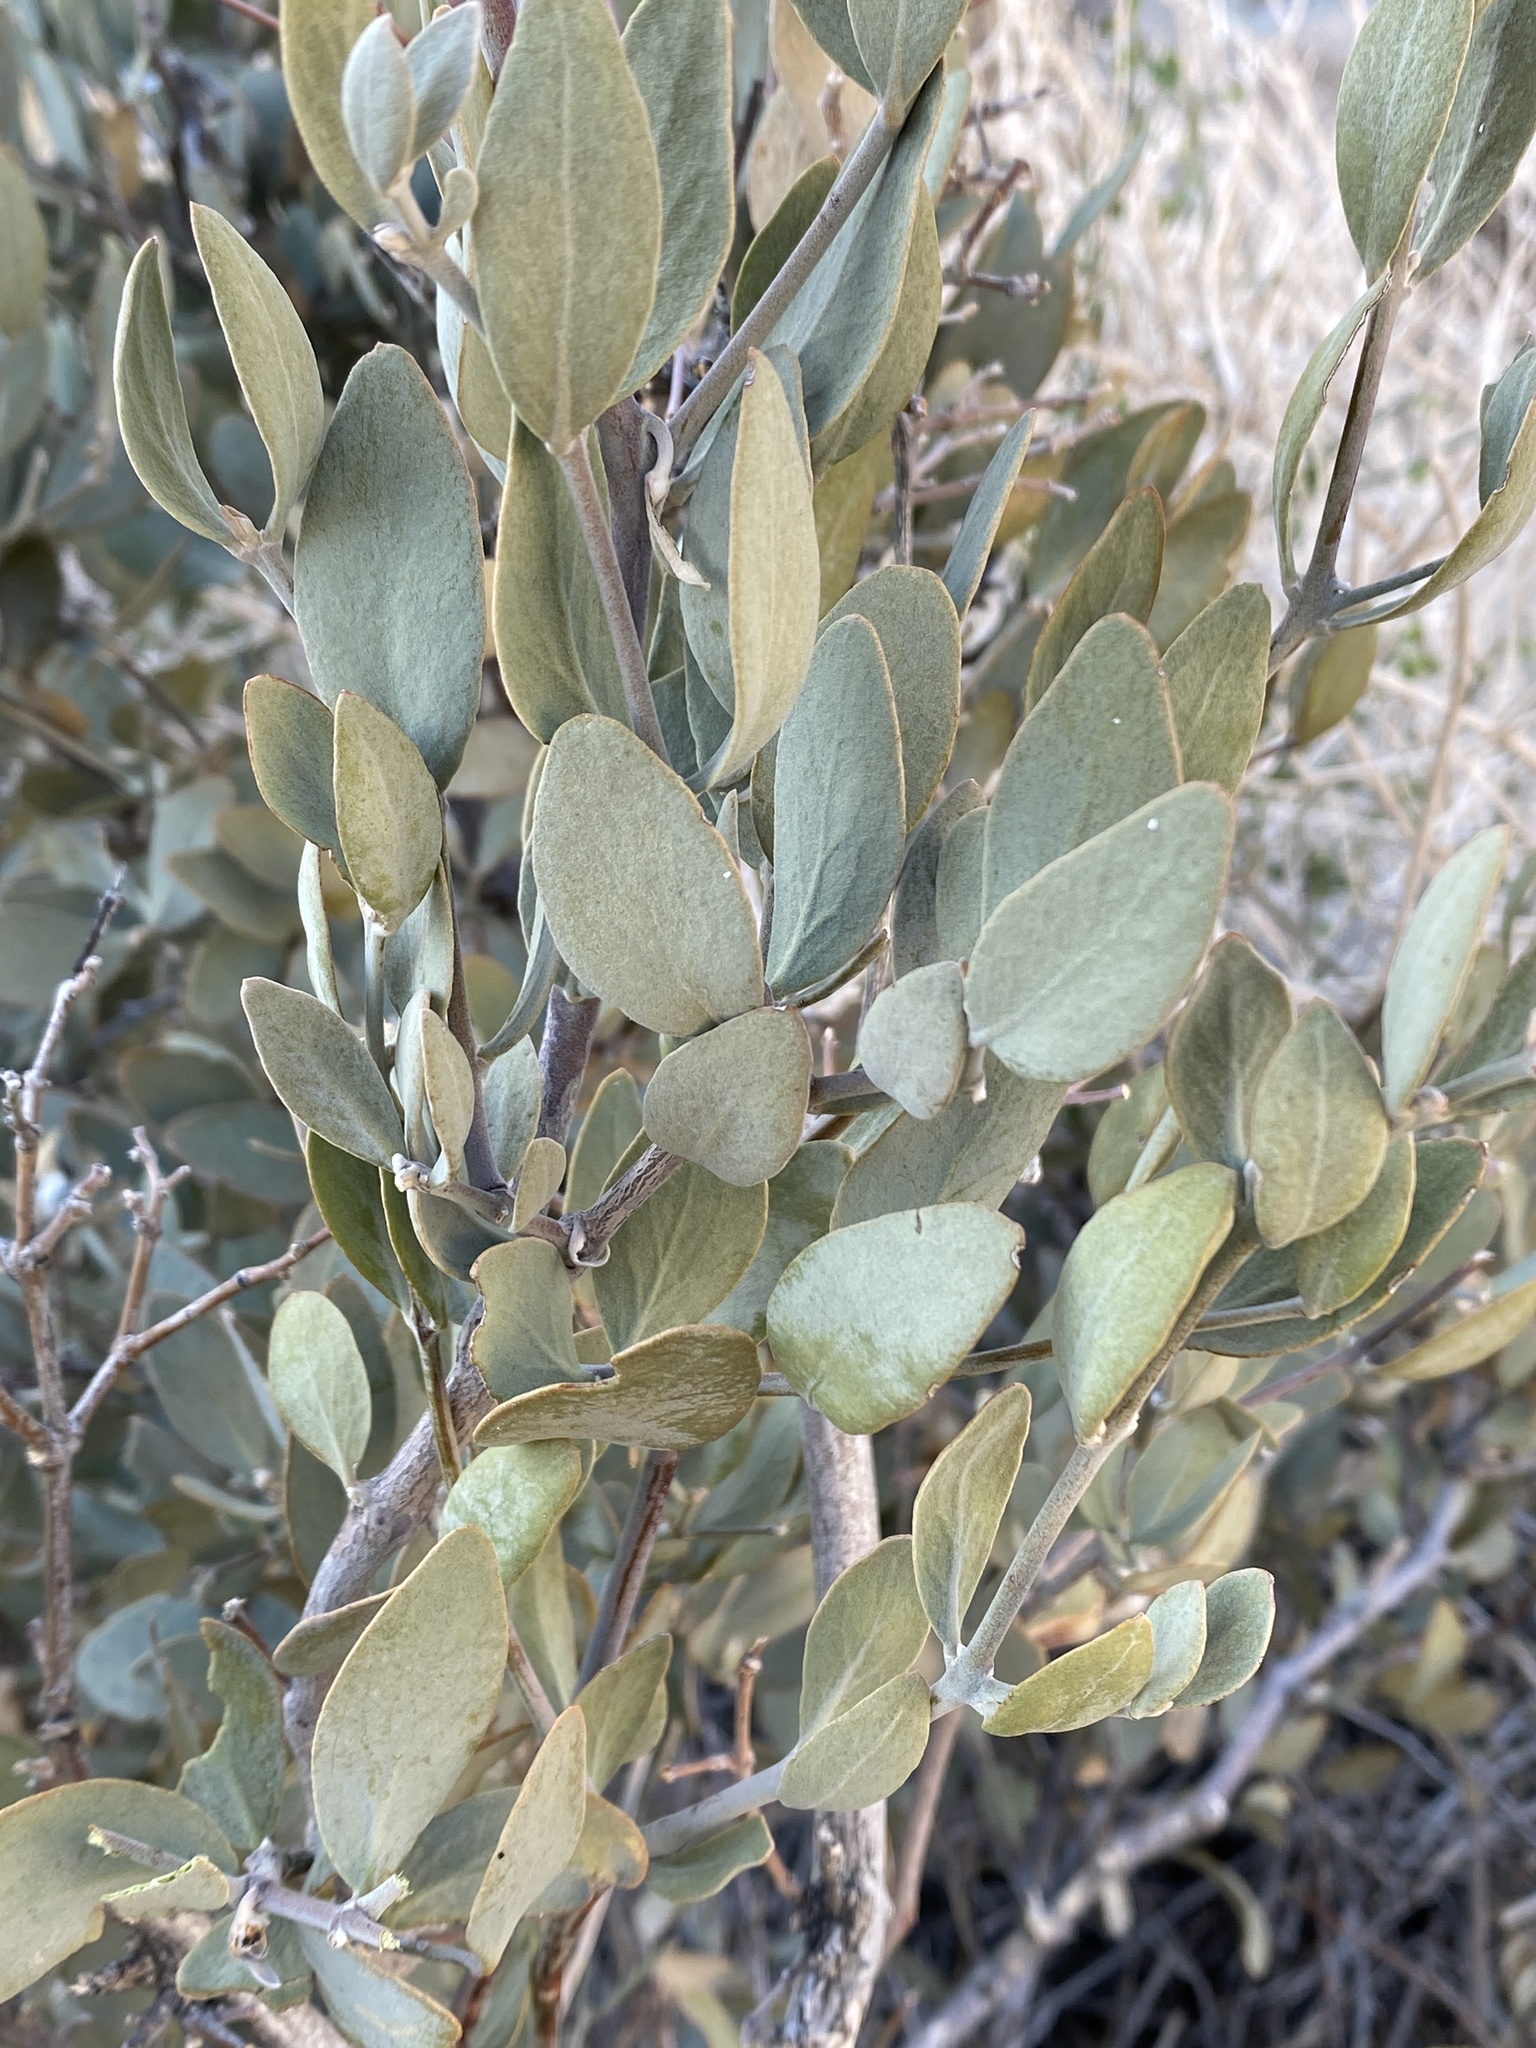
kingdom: Plantae
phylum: Tracheophyta
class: Magnoliopsida
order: Caryophyllales
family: Simmondsiaceae
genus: Simmondsia
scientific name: Simmondsia chinensis
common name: Jojoba
